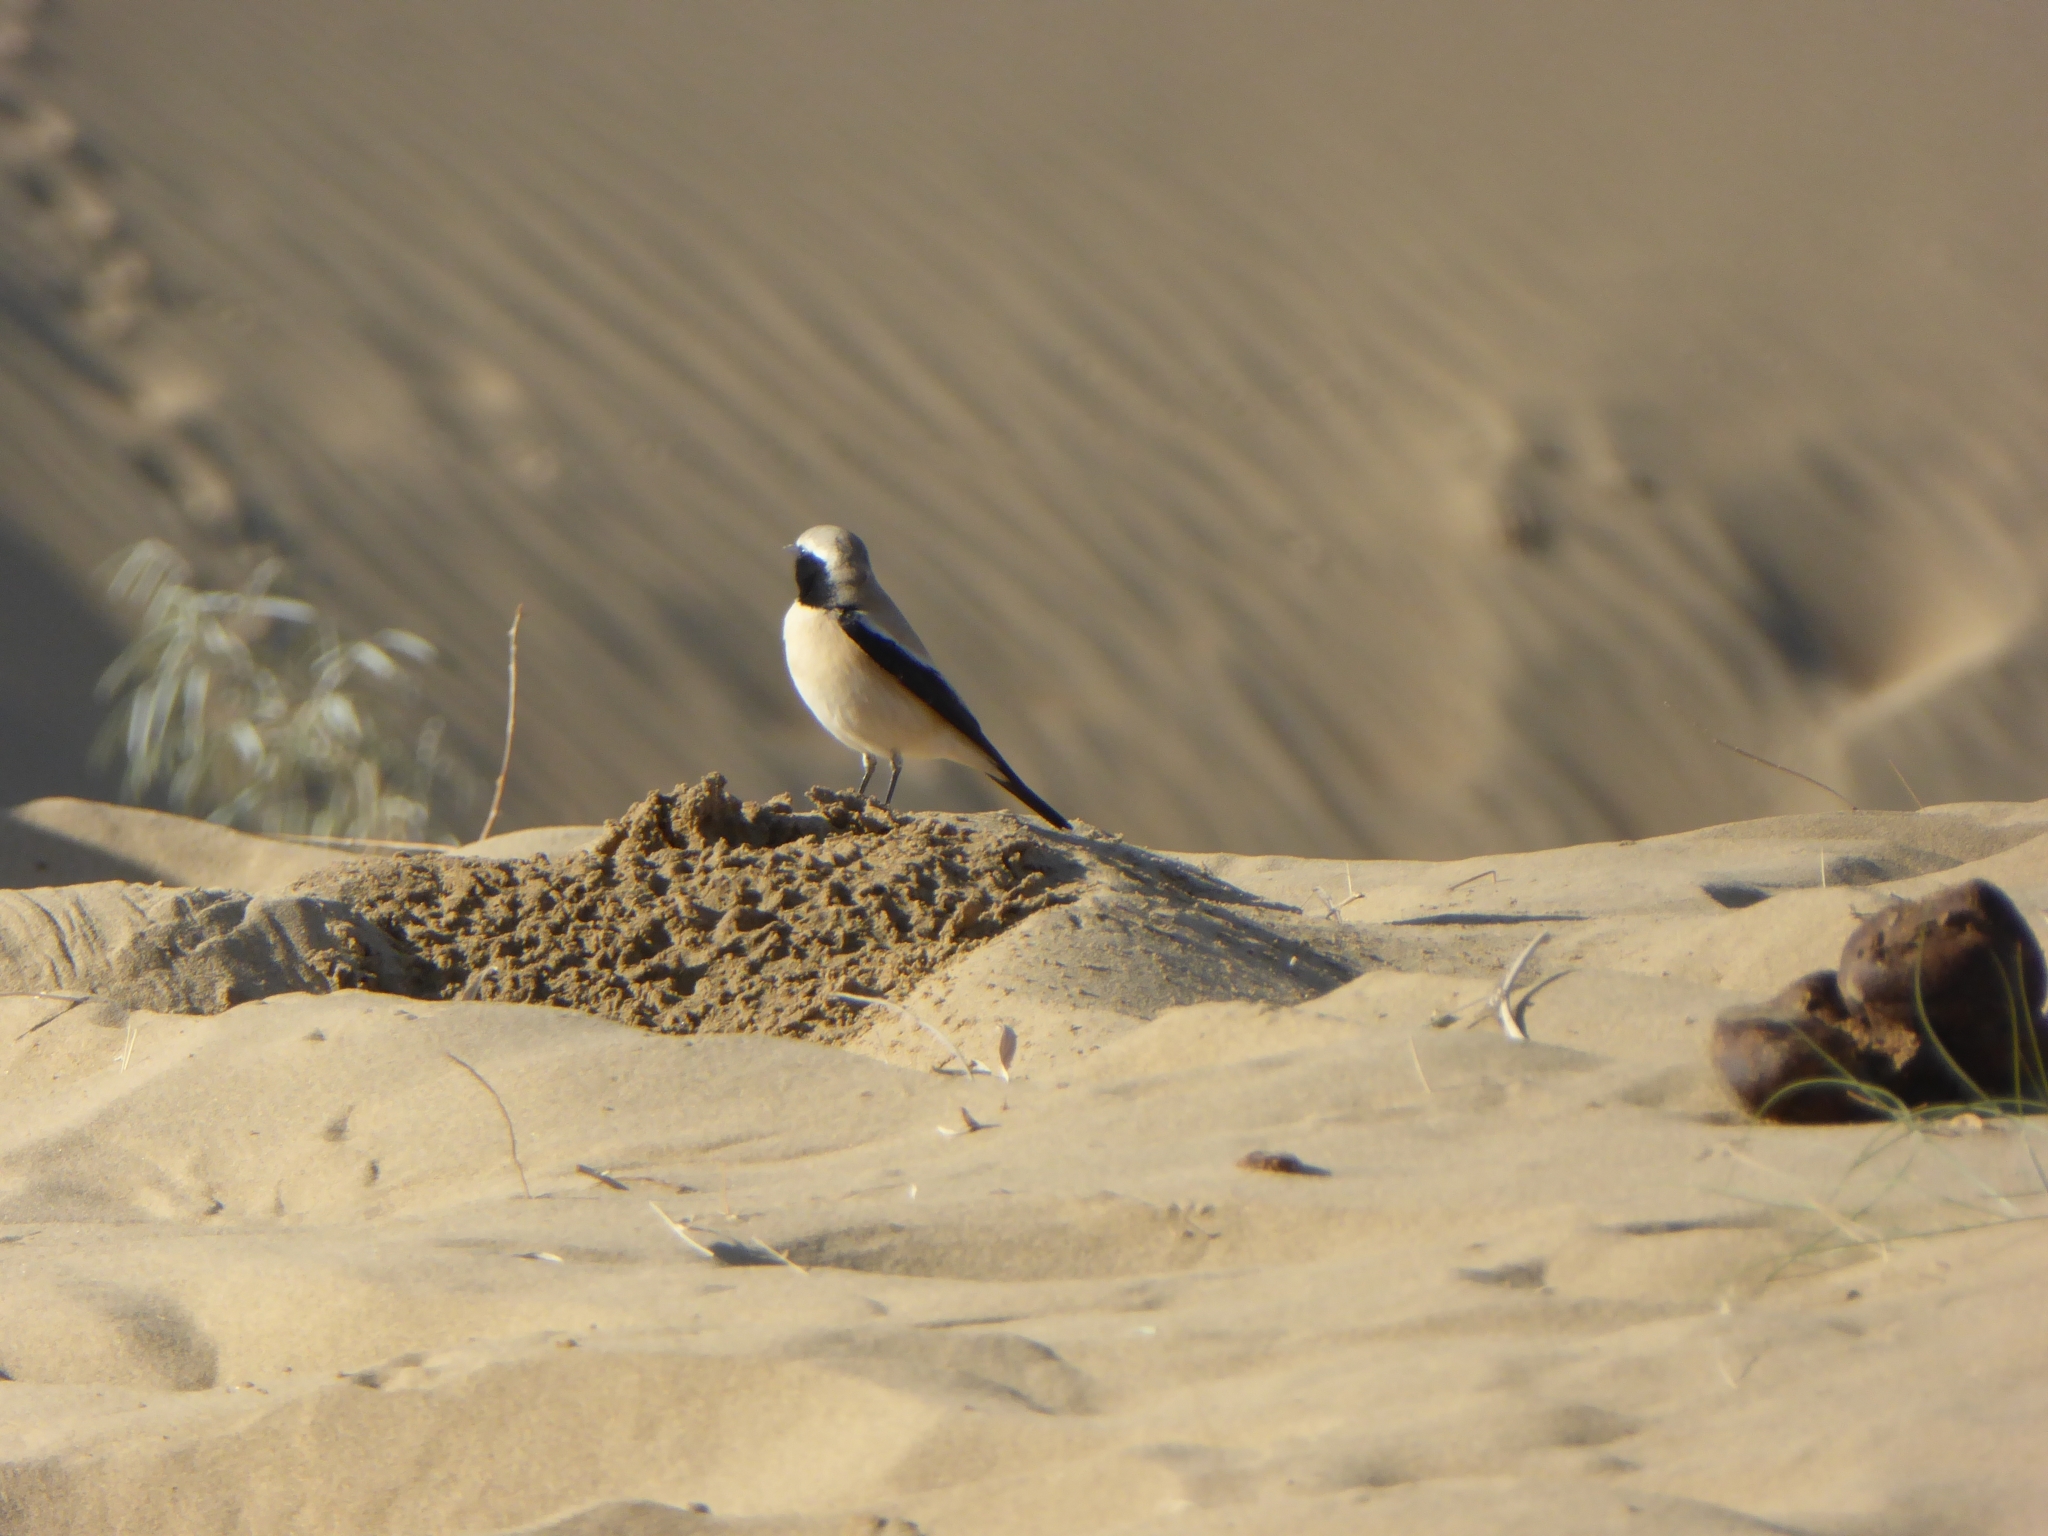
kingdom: Animalia
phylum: Chordata
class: Aves
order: Passeriformes
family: Muscicapidae
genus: Oenanthe
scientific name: Oenanthe deserti
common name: Desert wheatear
